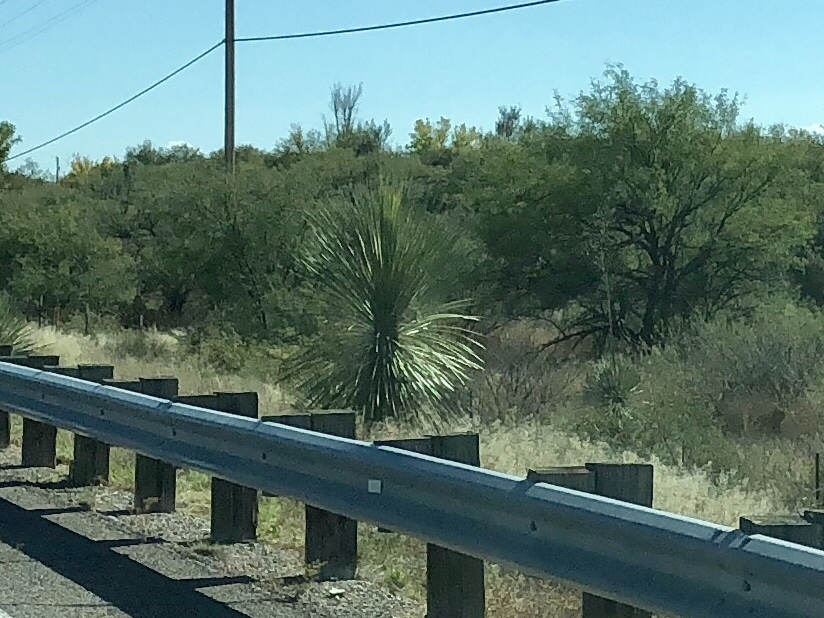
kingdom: Plantae
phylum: Tracheophyta
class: Liliopsida
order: Asparagales
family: Asparagaceae
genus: Yucca
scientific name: Yucca elata
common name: Palmella
